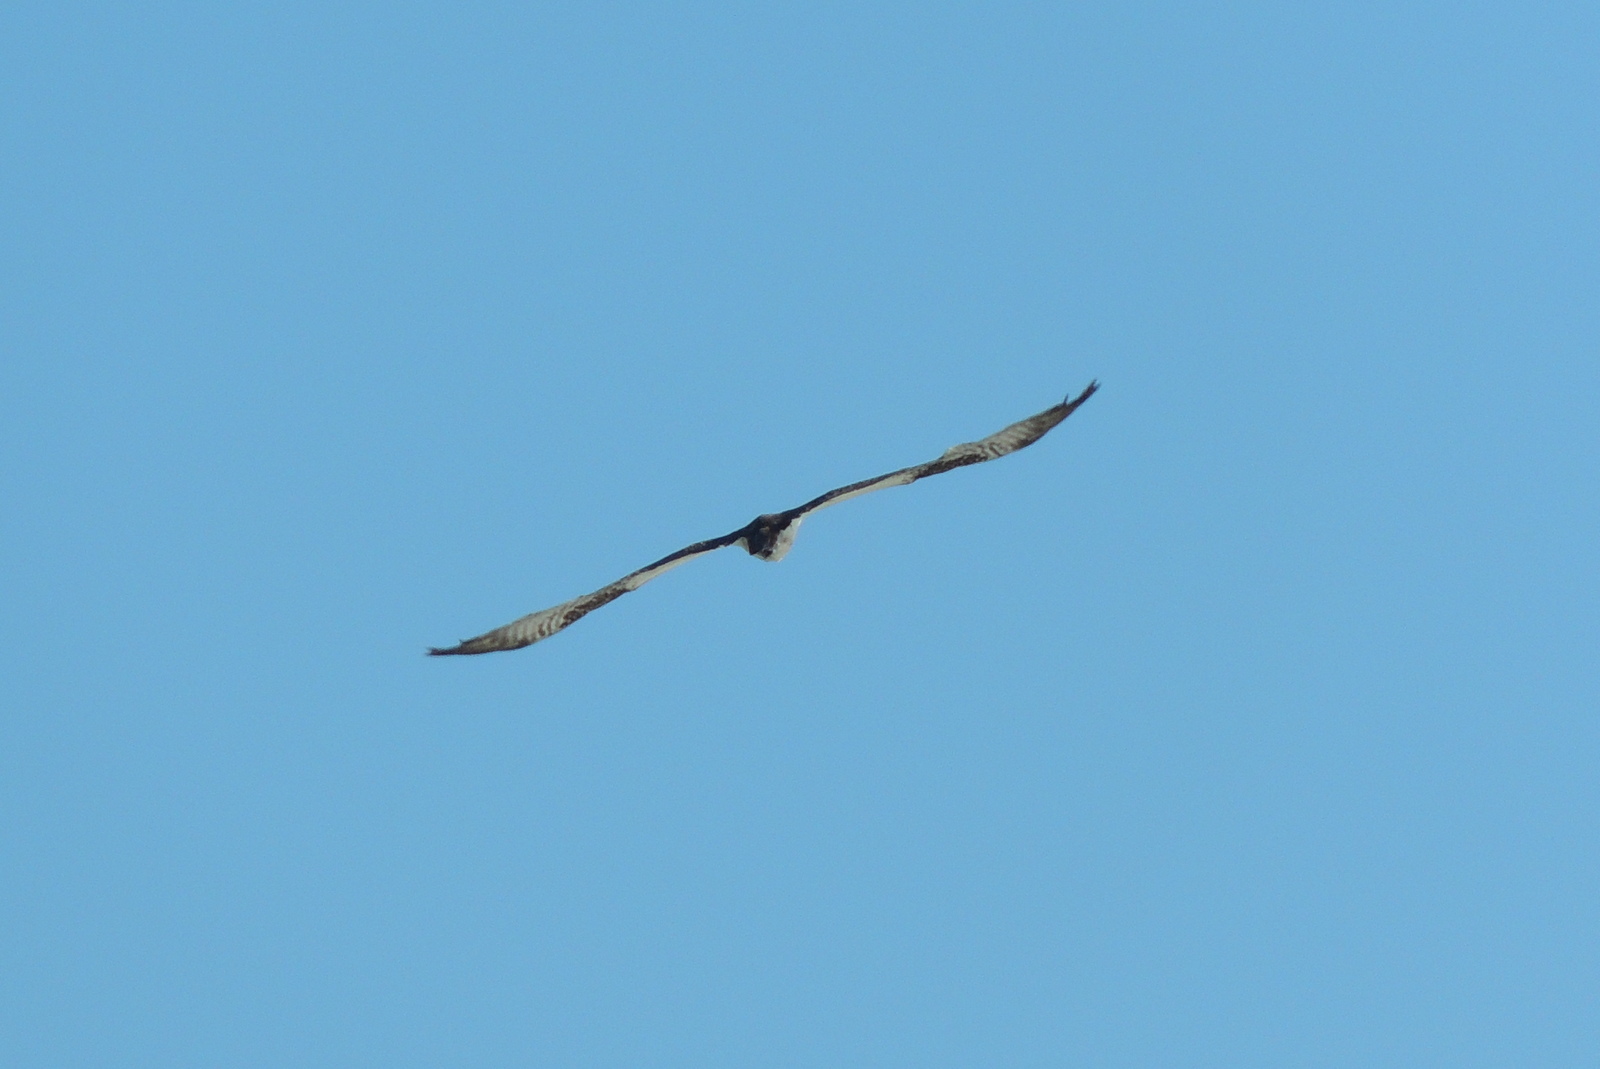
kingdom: Animalia
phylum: Chordata
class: Aves
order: Accipitriformes
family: Pandionidae
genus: Pandion
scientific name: Pandion haliaetus
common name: Osprey
